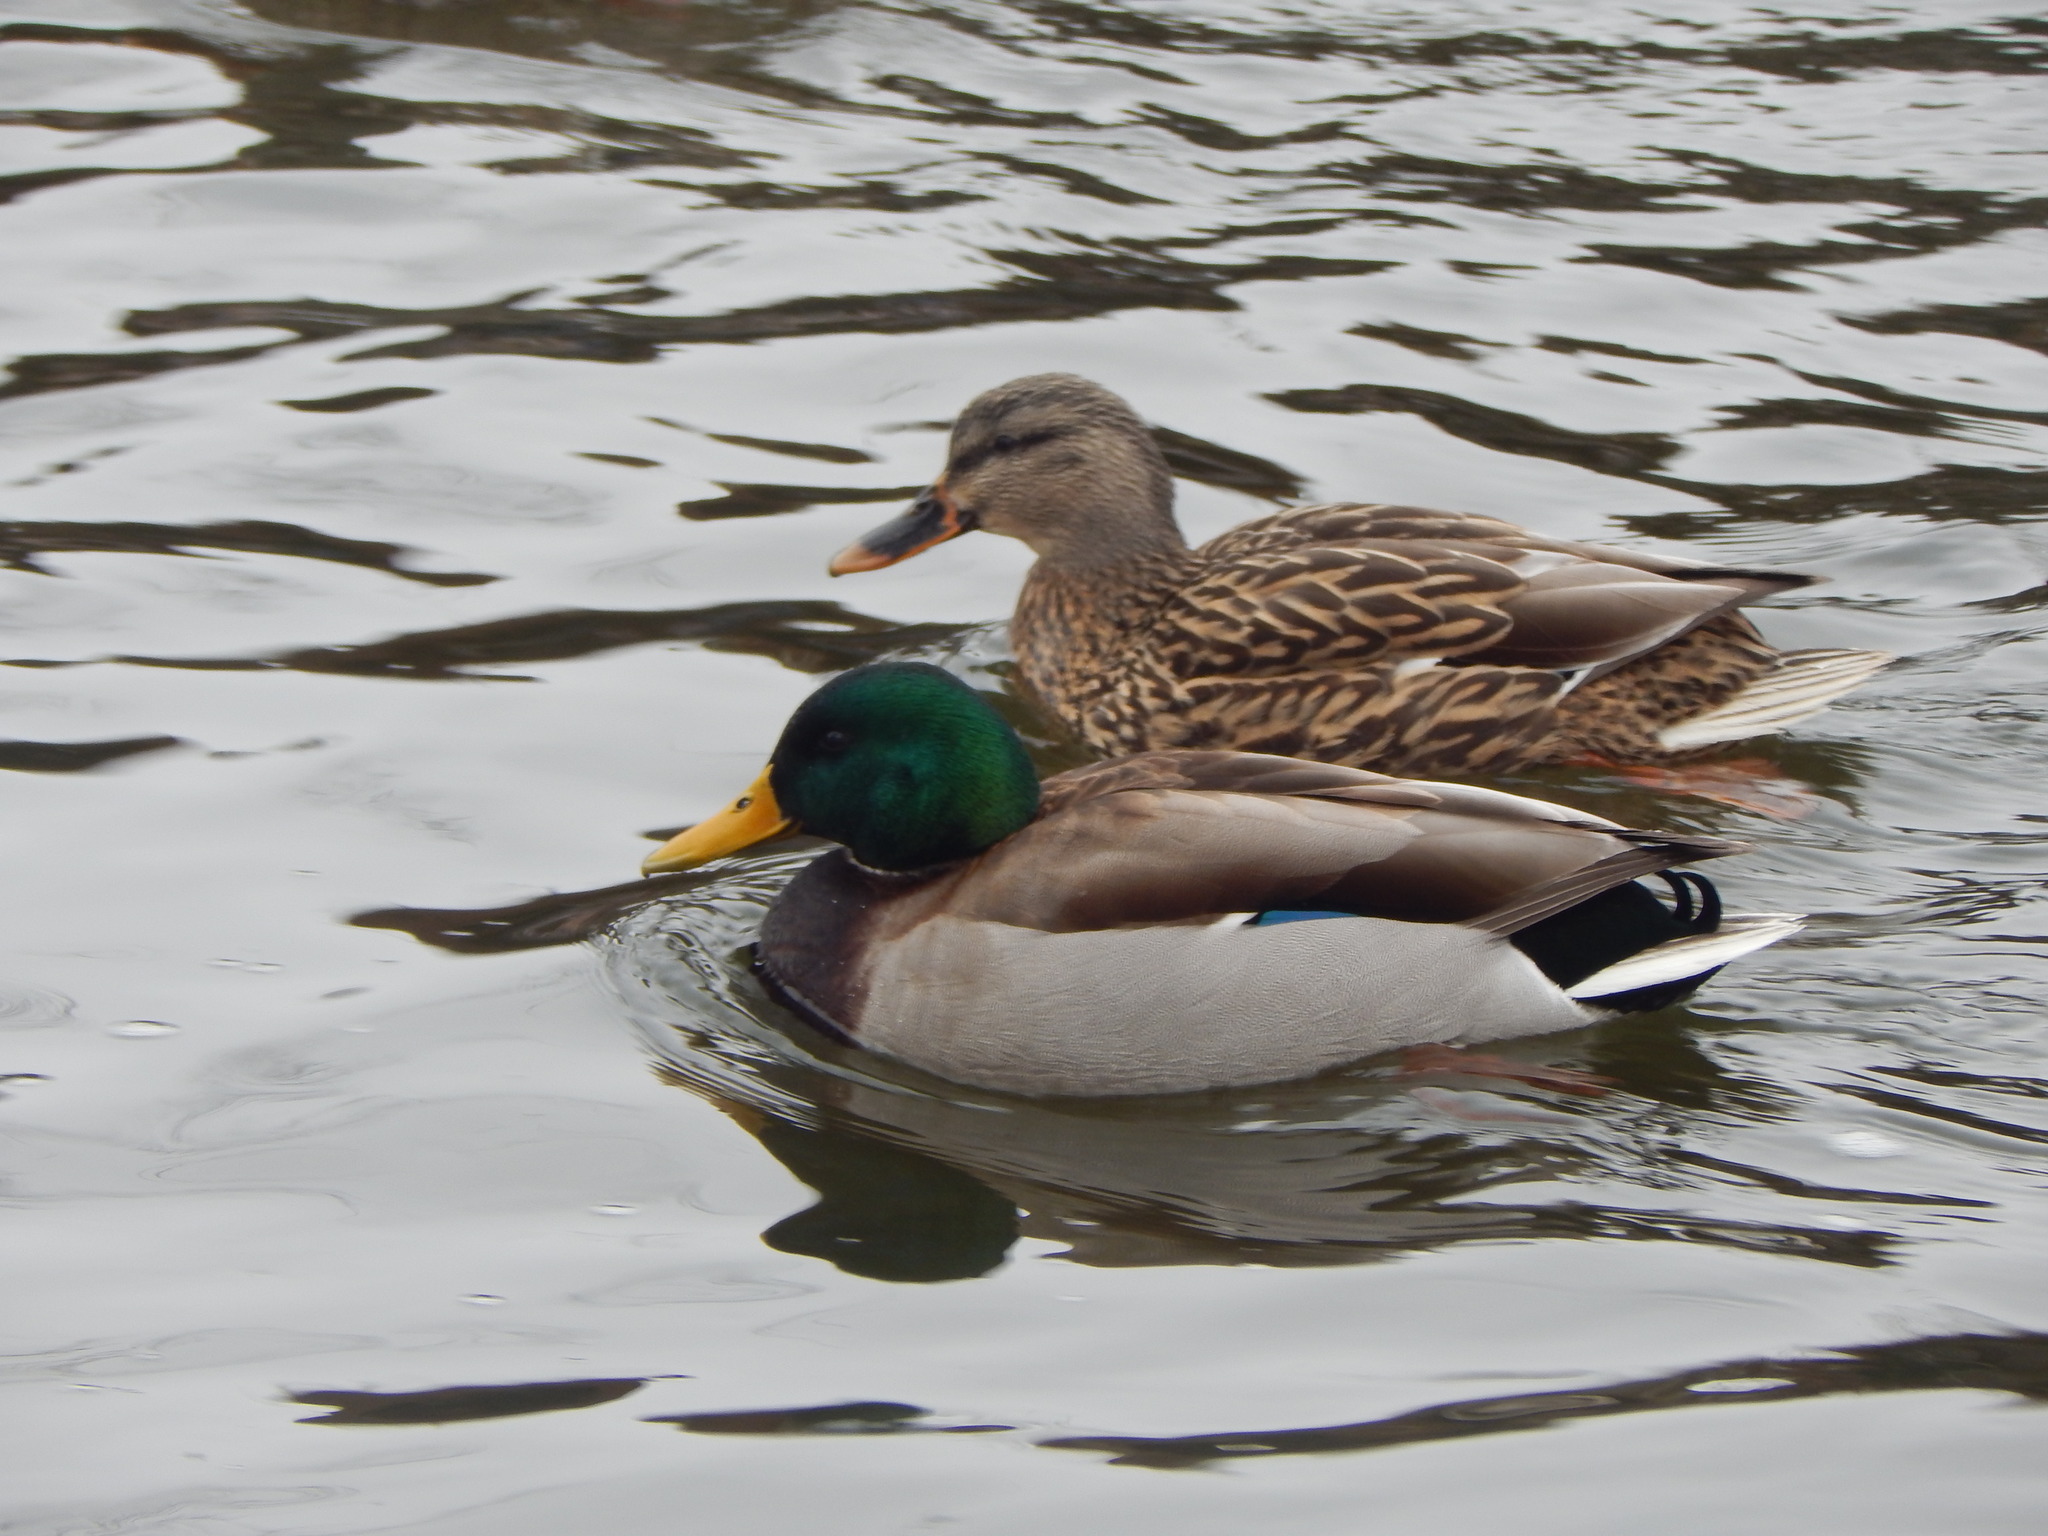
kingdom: Animalia
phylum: Chordata
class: Aves
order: Anseriformes
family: Anatidae
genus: Anas
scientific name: Anas platyrhynchos
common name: Mallard
